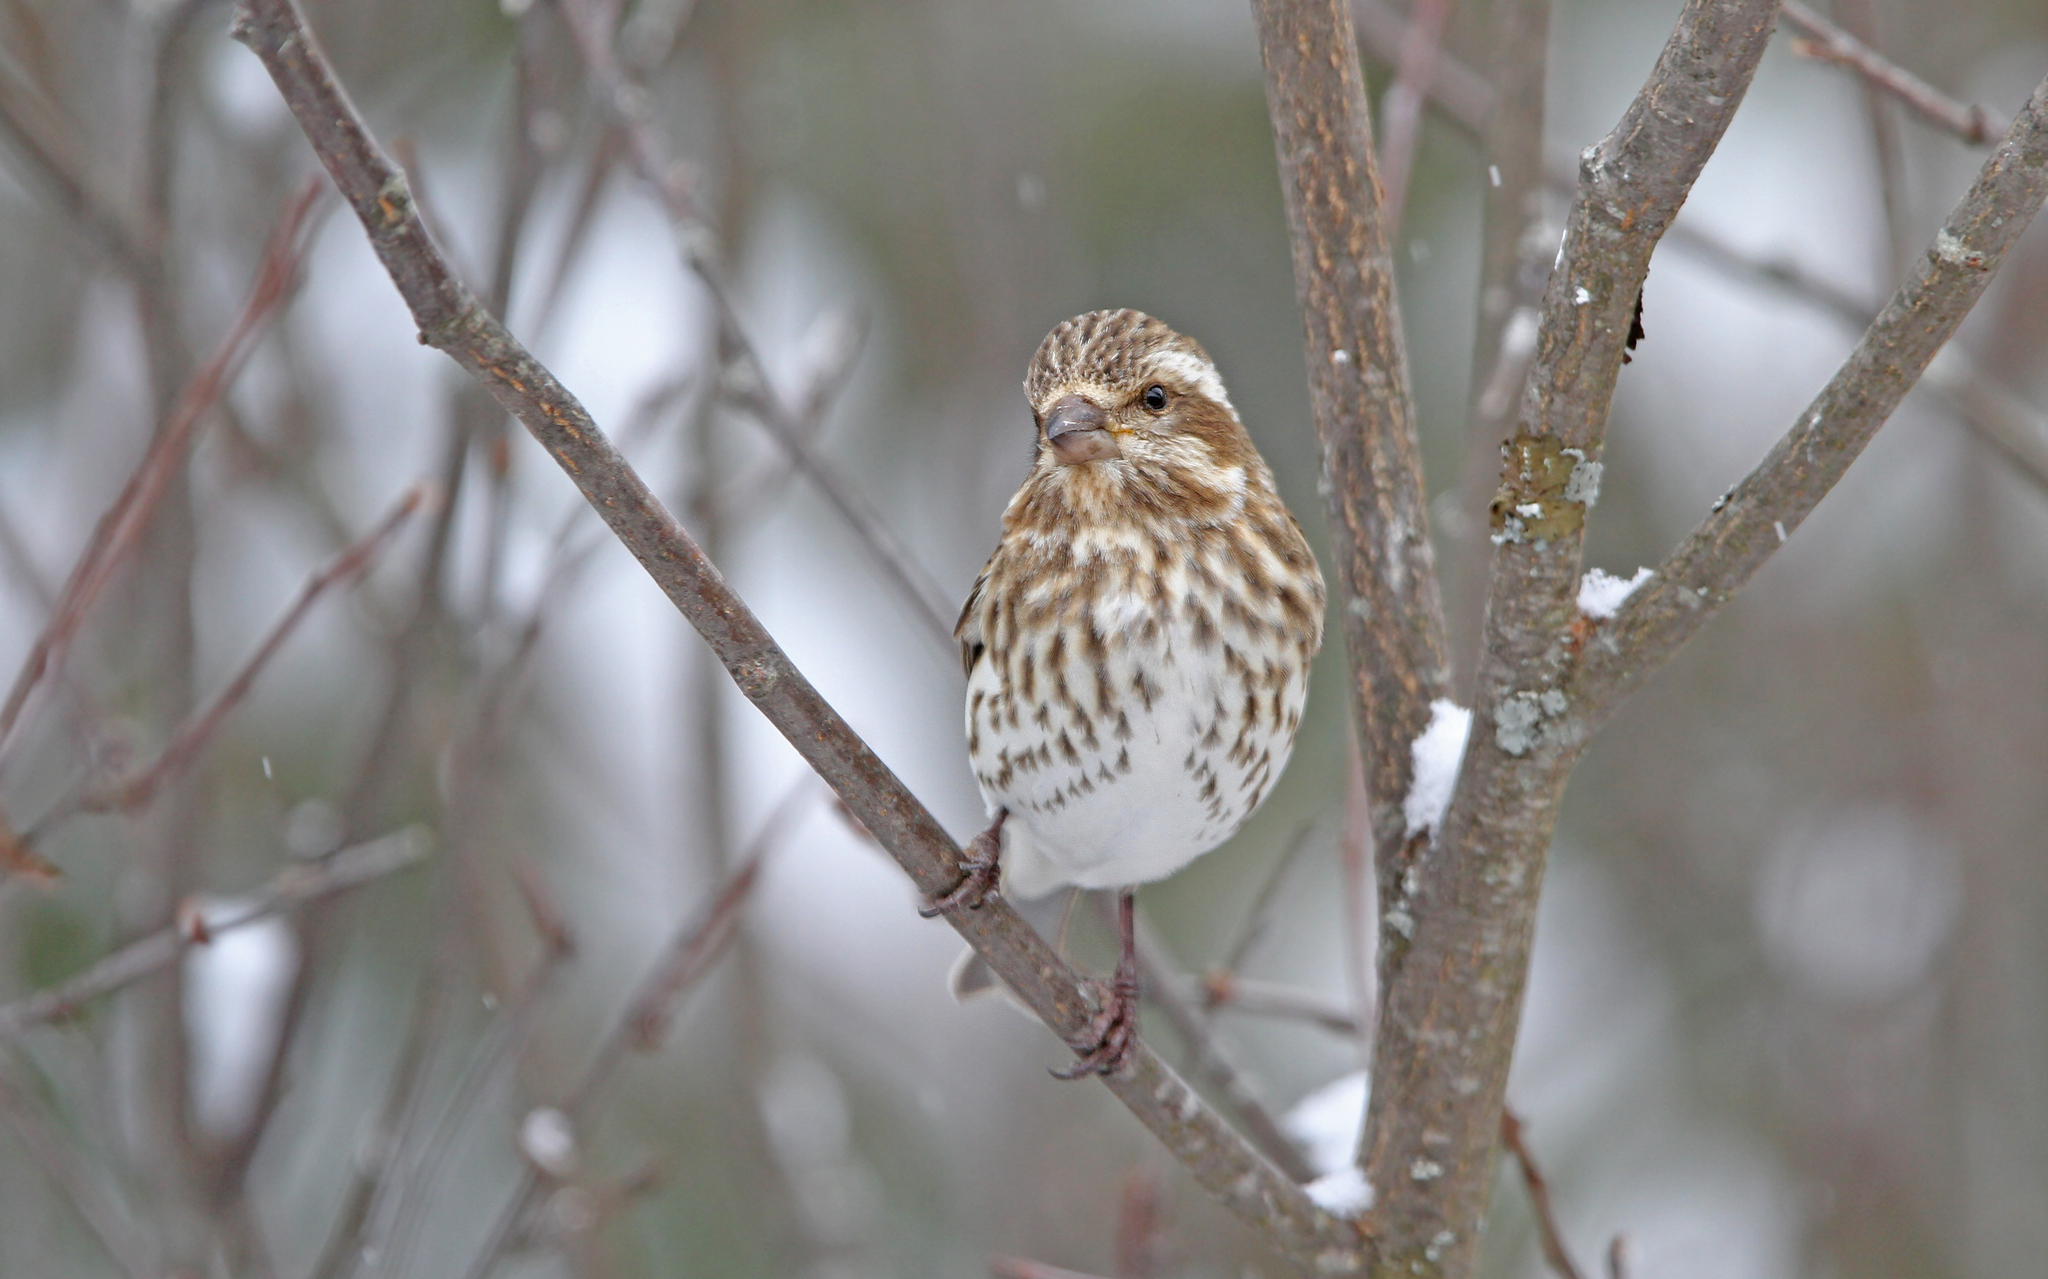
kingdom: Animalia
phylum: Chordata
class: Aves
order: Passeriformes
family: Fringillidae
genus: Haemorhous
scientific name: Haemorhous purpureus
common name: Purple finch
